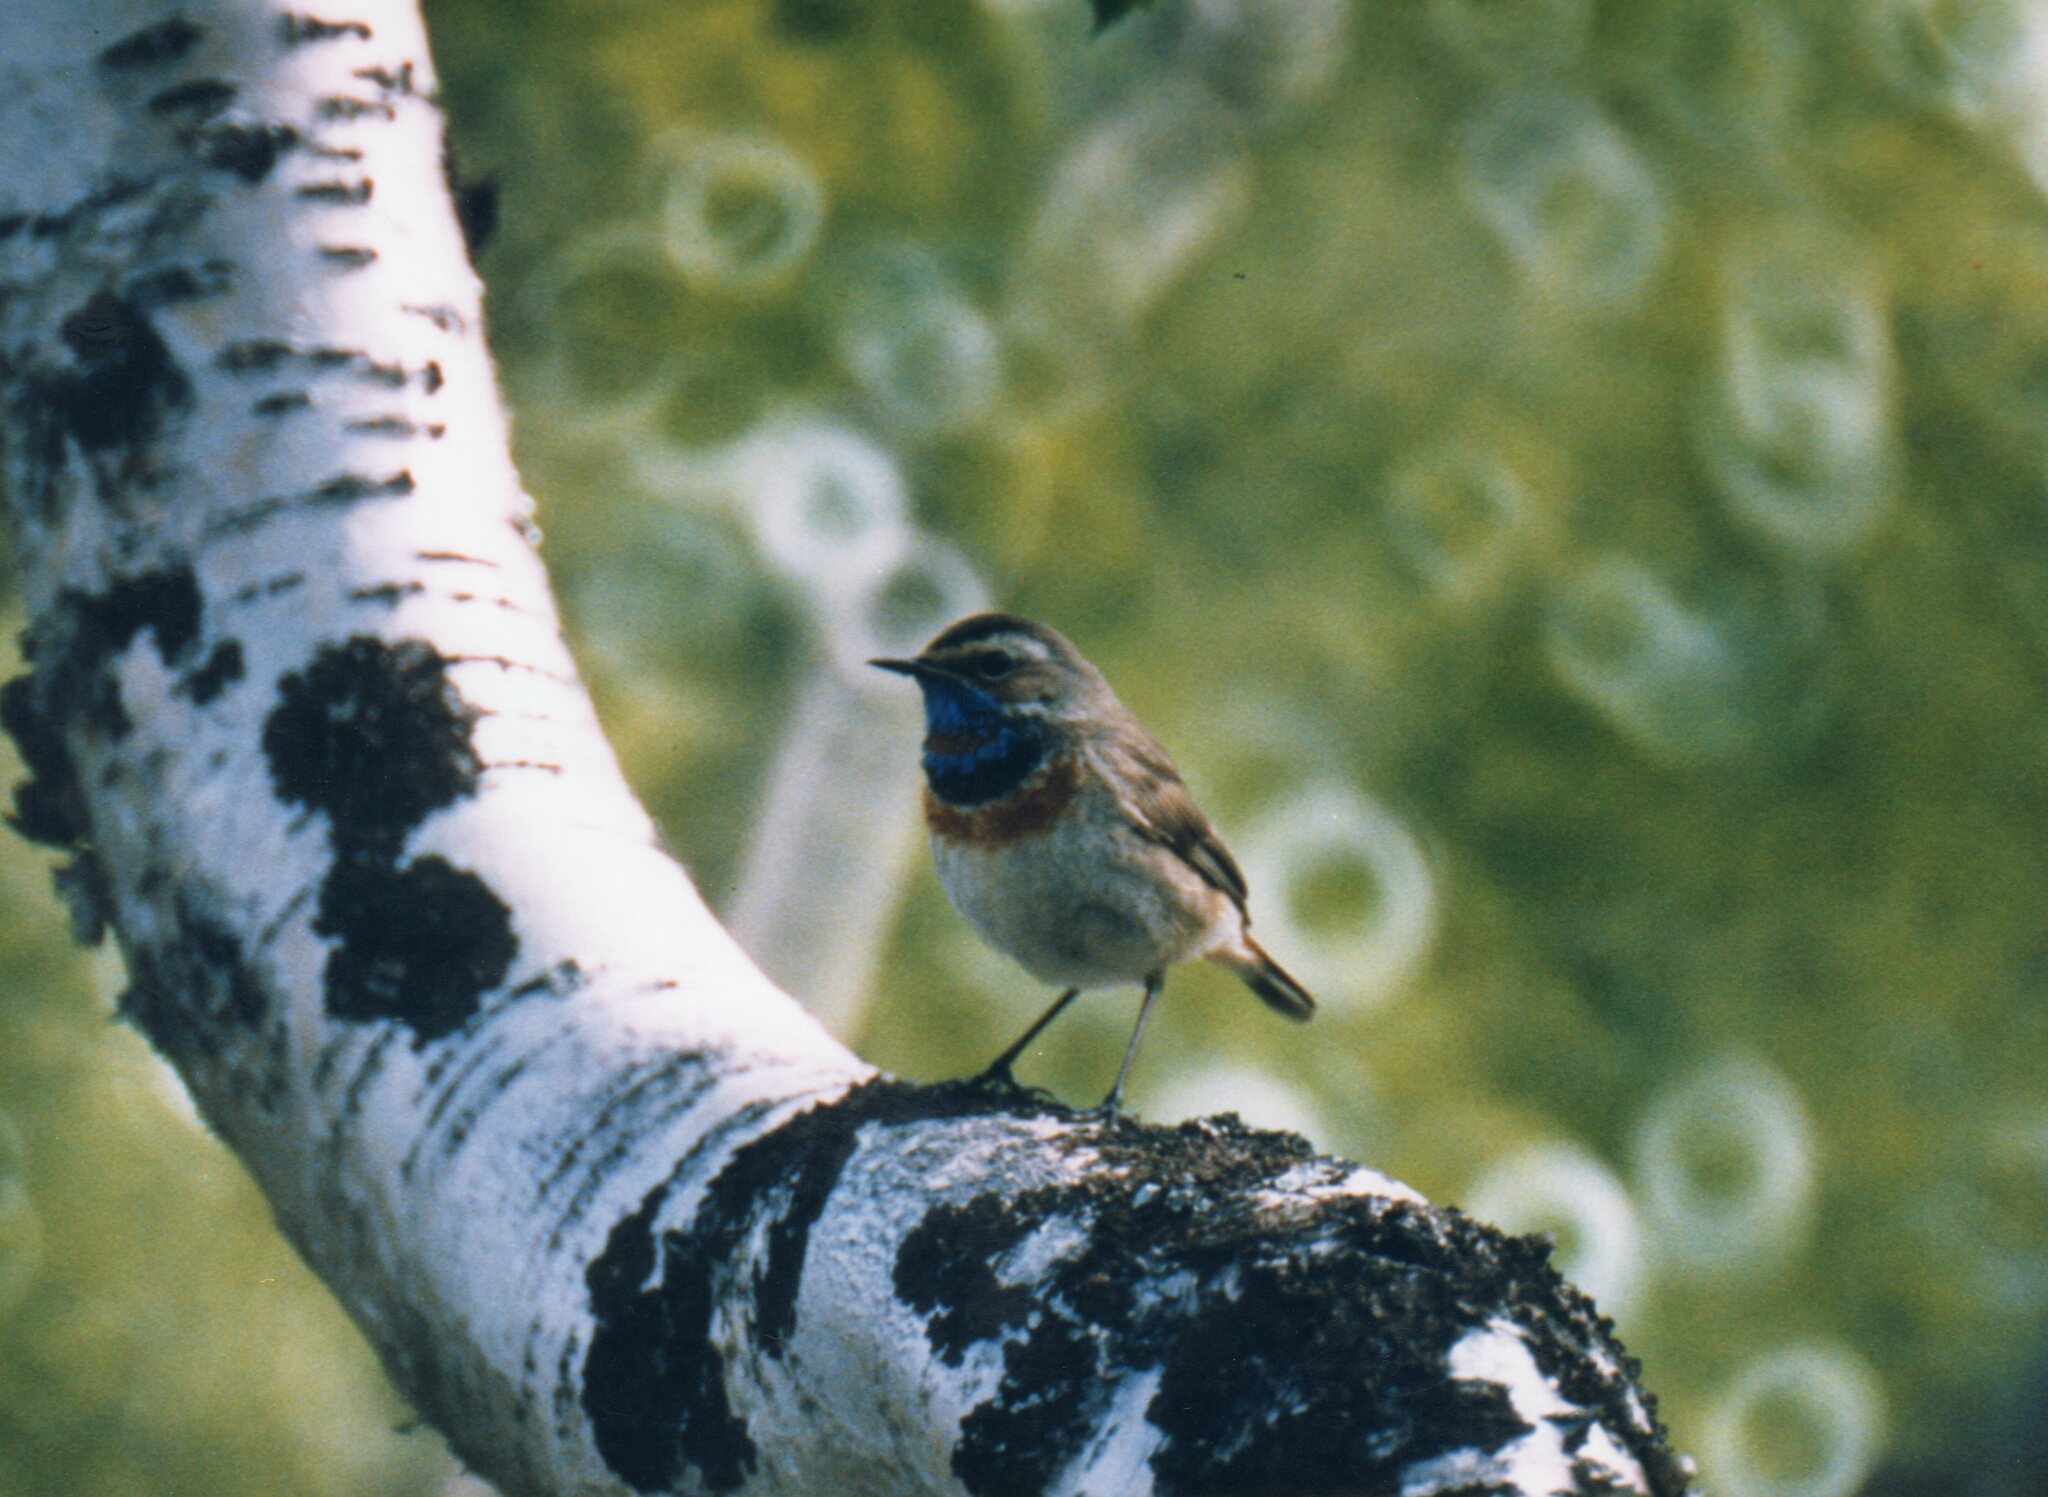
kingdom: Animalia
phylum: Chordata
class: Aves
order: Passeriformes
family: Muscicapidae
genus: Luscinia
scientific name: Luscinia svecica
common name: Bluethroat
